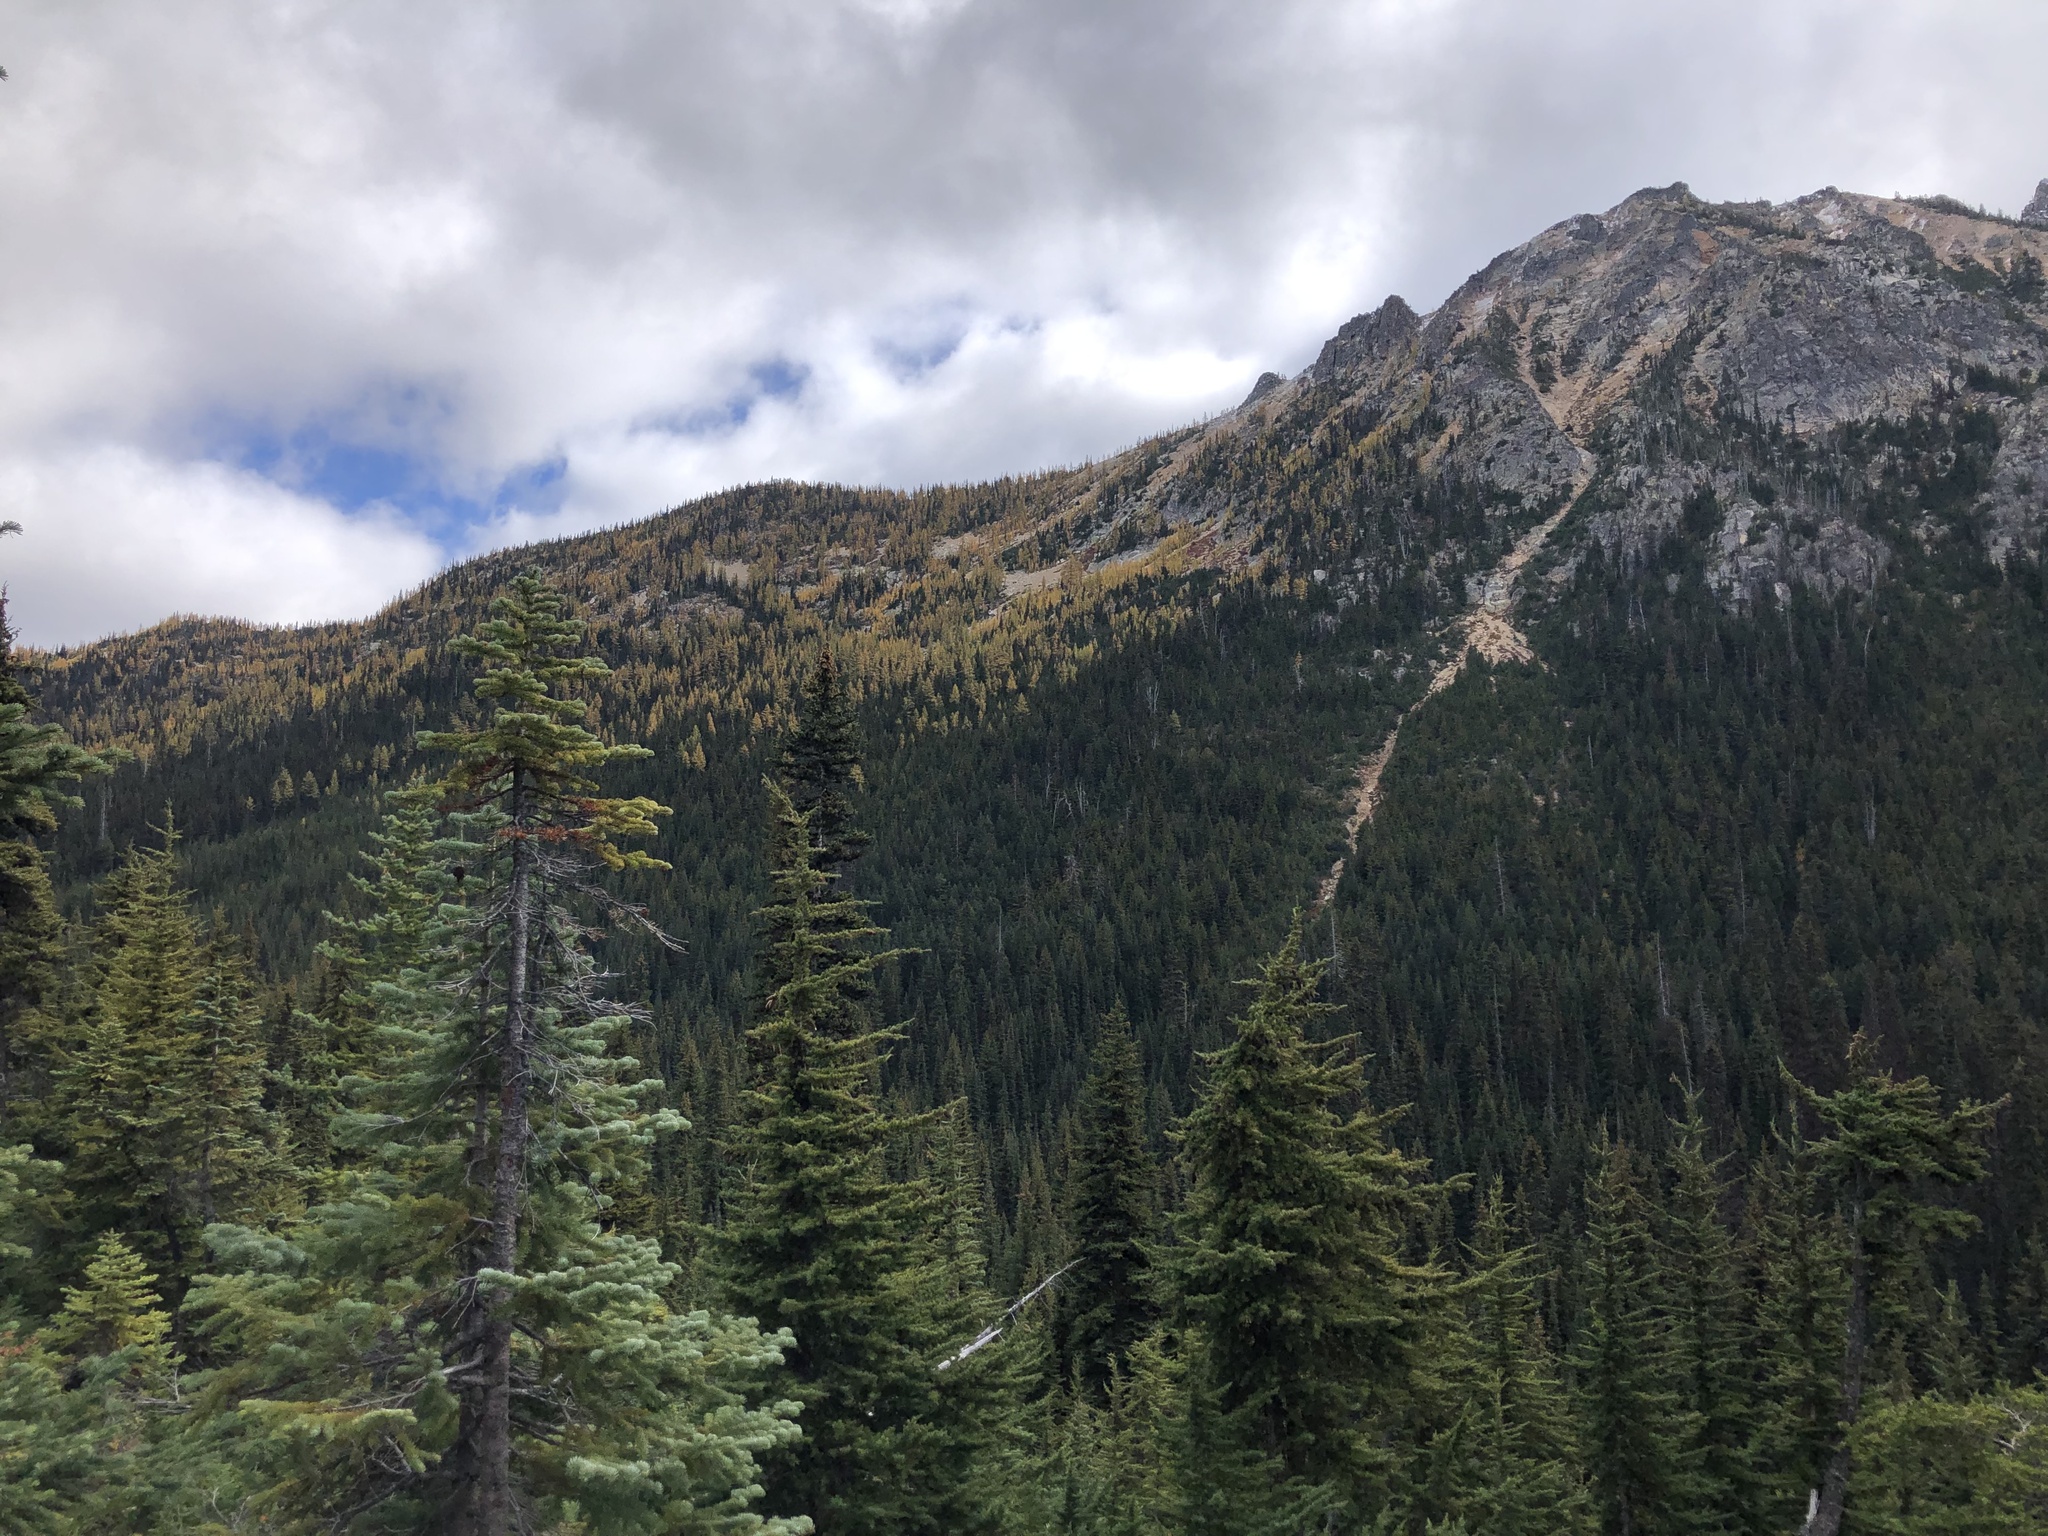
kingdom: Plantae
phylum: Tracheophyta
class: Pinopsida
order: Pinales
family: Pinaceae
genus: Tsuga
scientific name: Tsuga mertensiana
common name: Mountain hemlock
